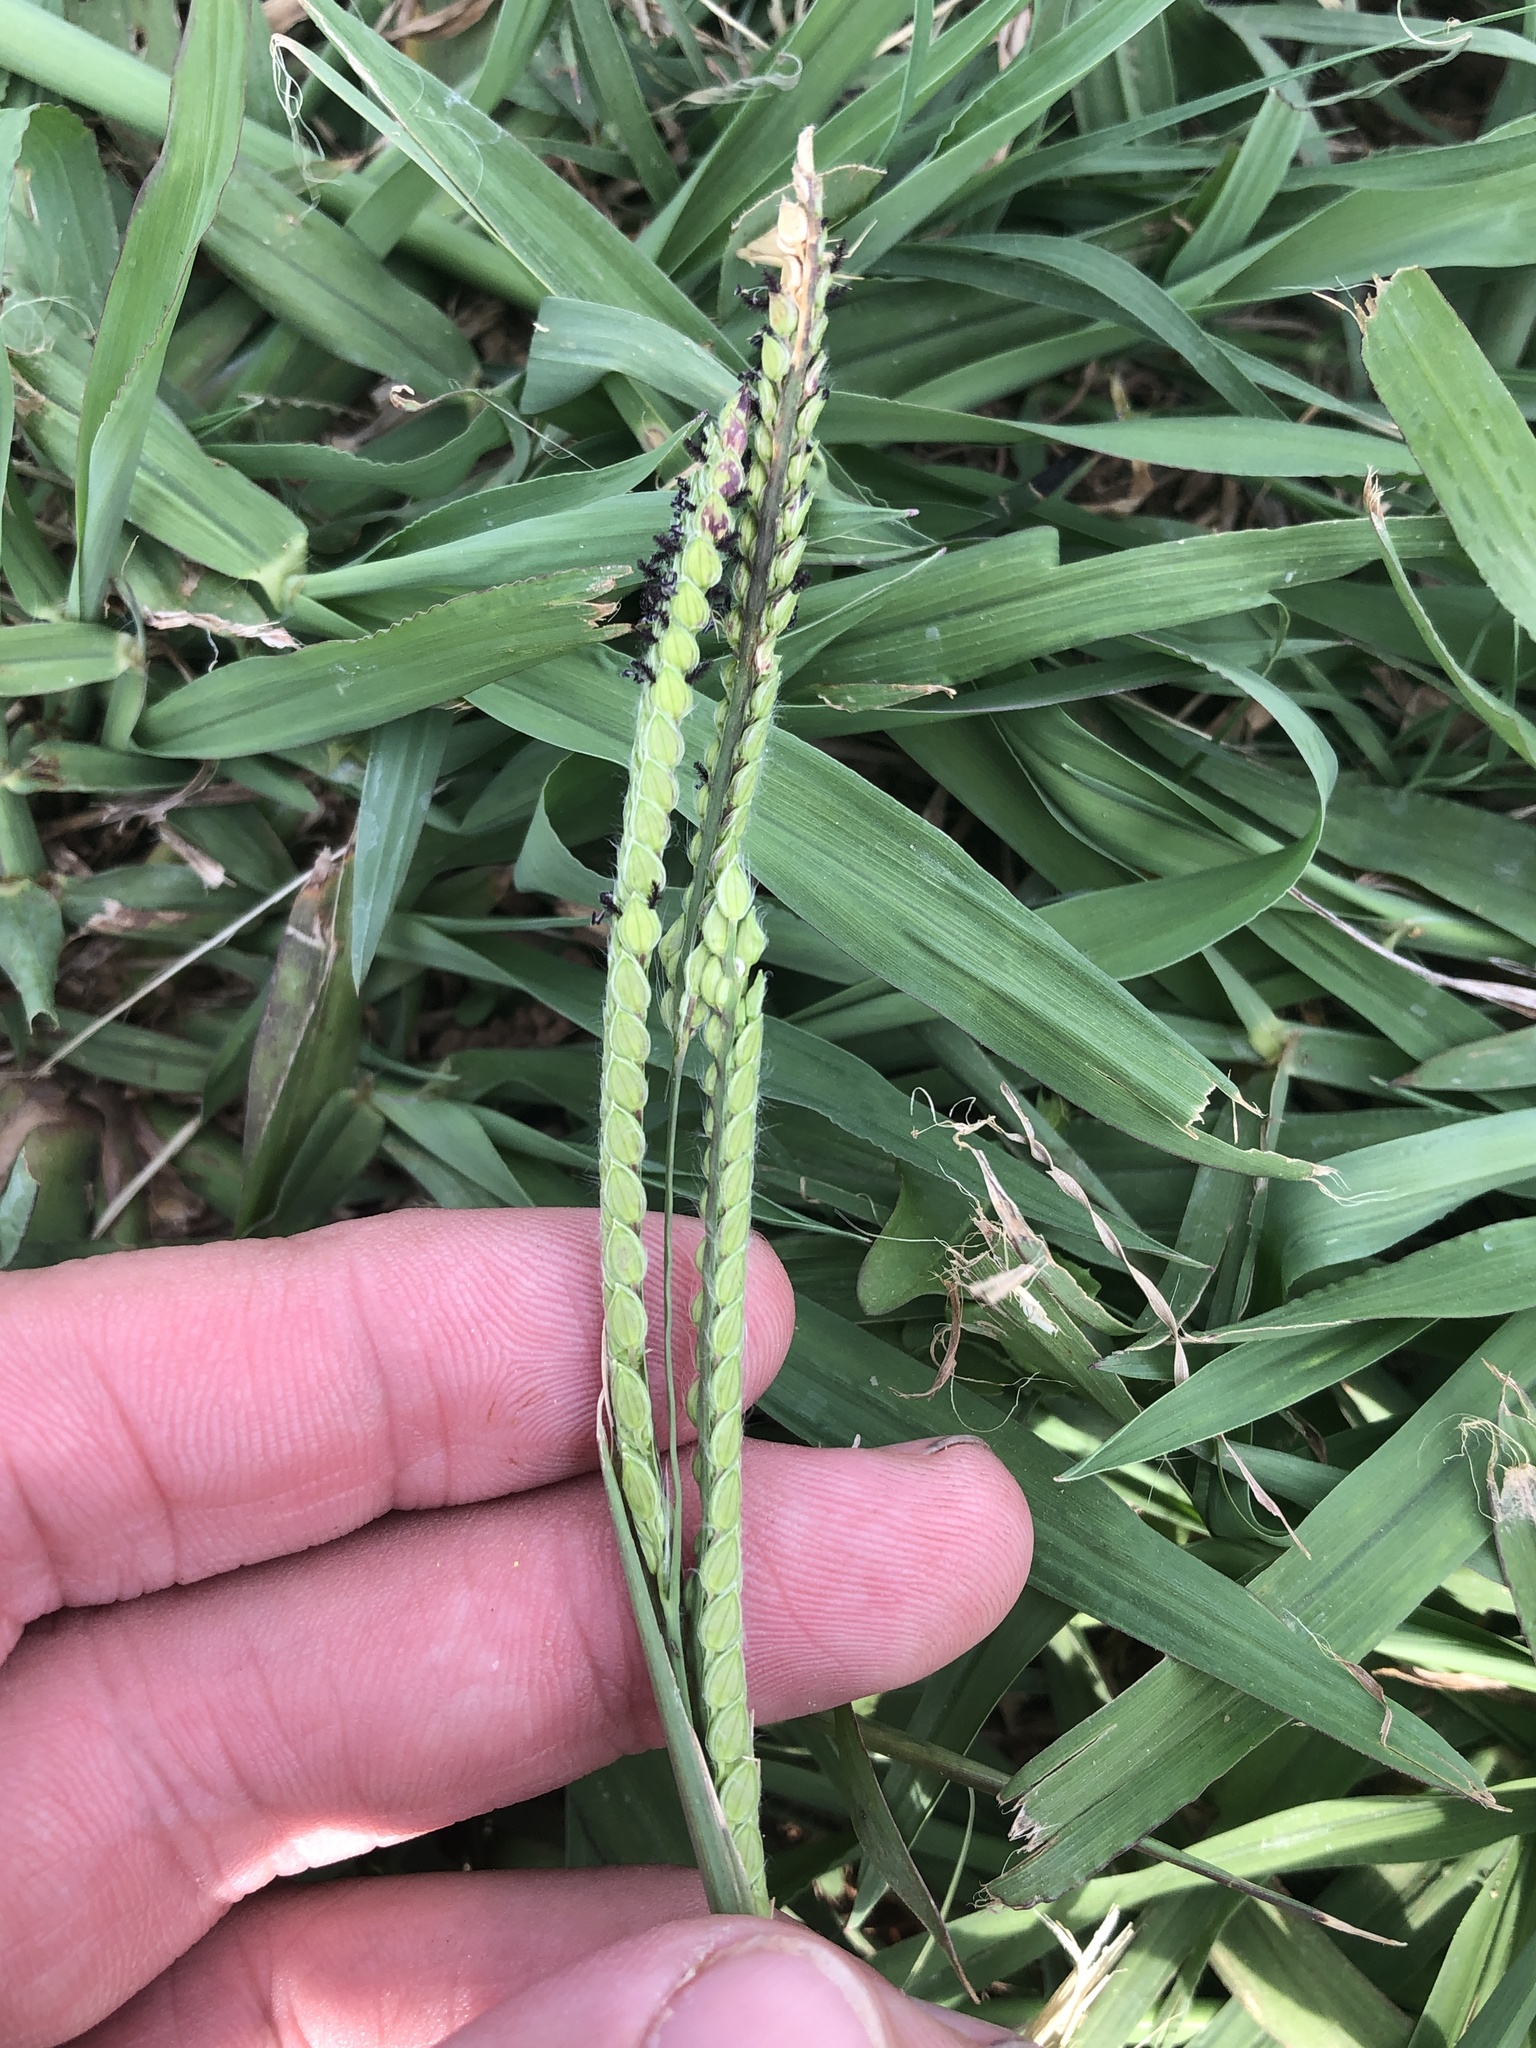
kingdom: Plantae
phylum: Tracheophyta
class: Liliopsida
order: Poales
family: Poaceae
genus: Paspalum
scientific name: Paspalum dilatatum
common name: Dallisgrass
